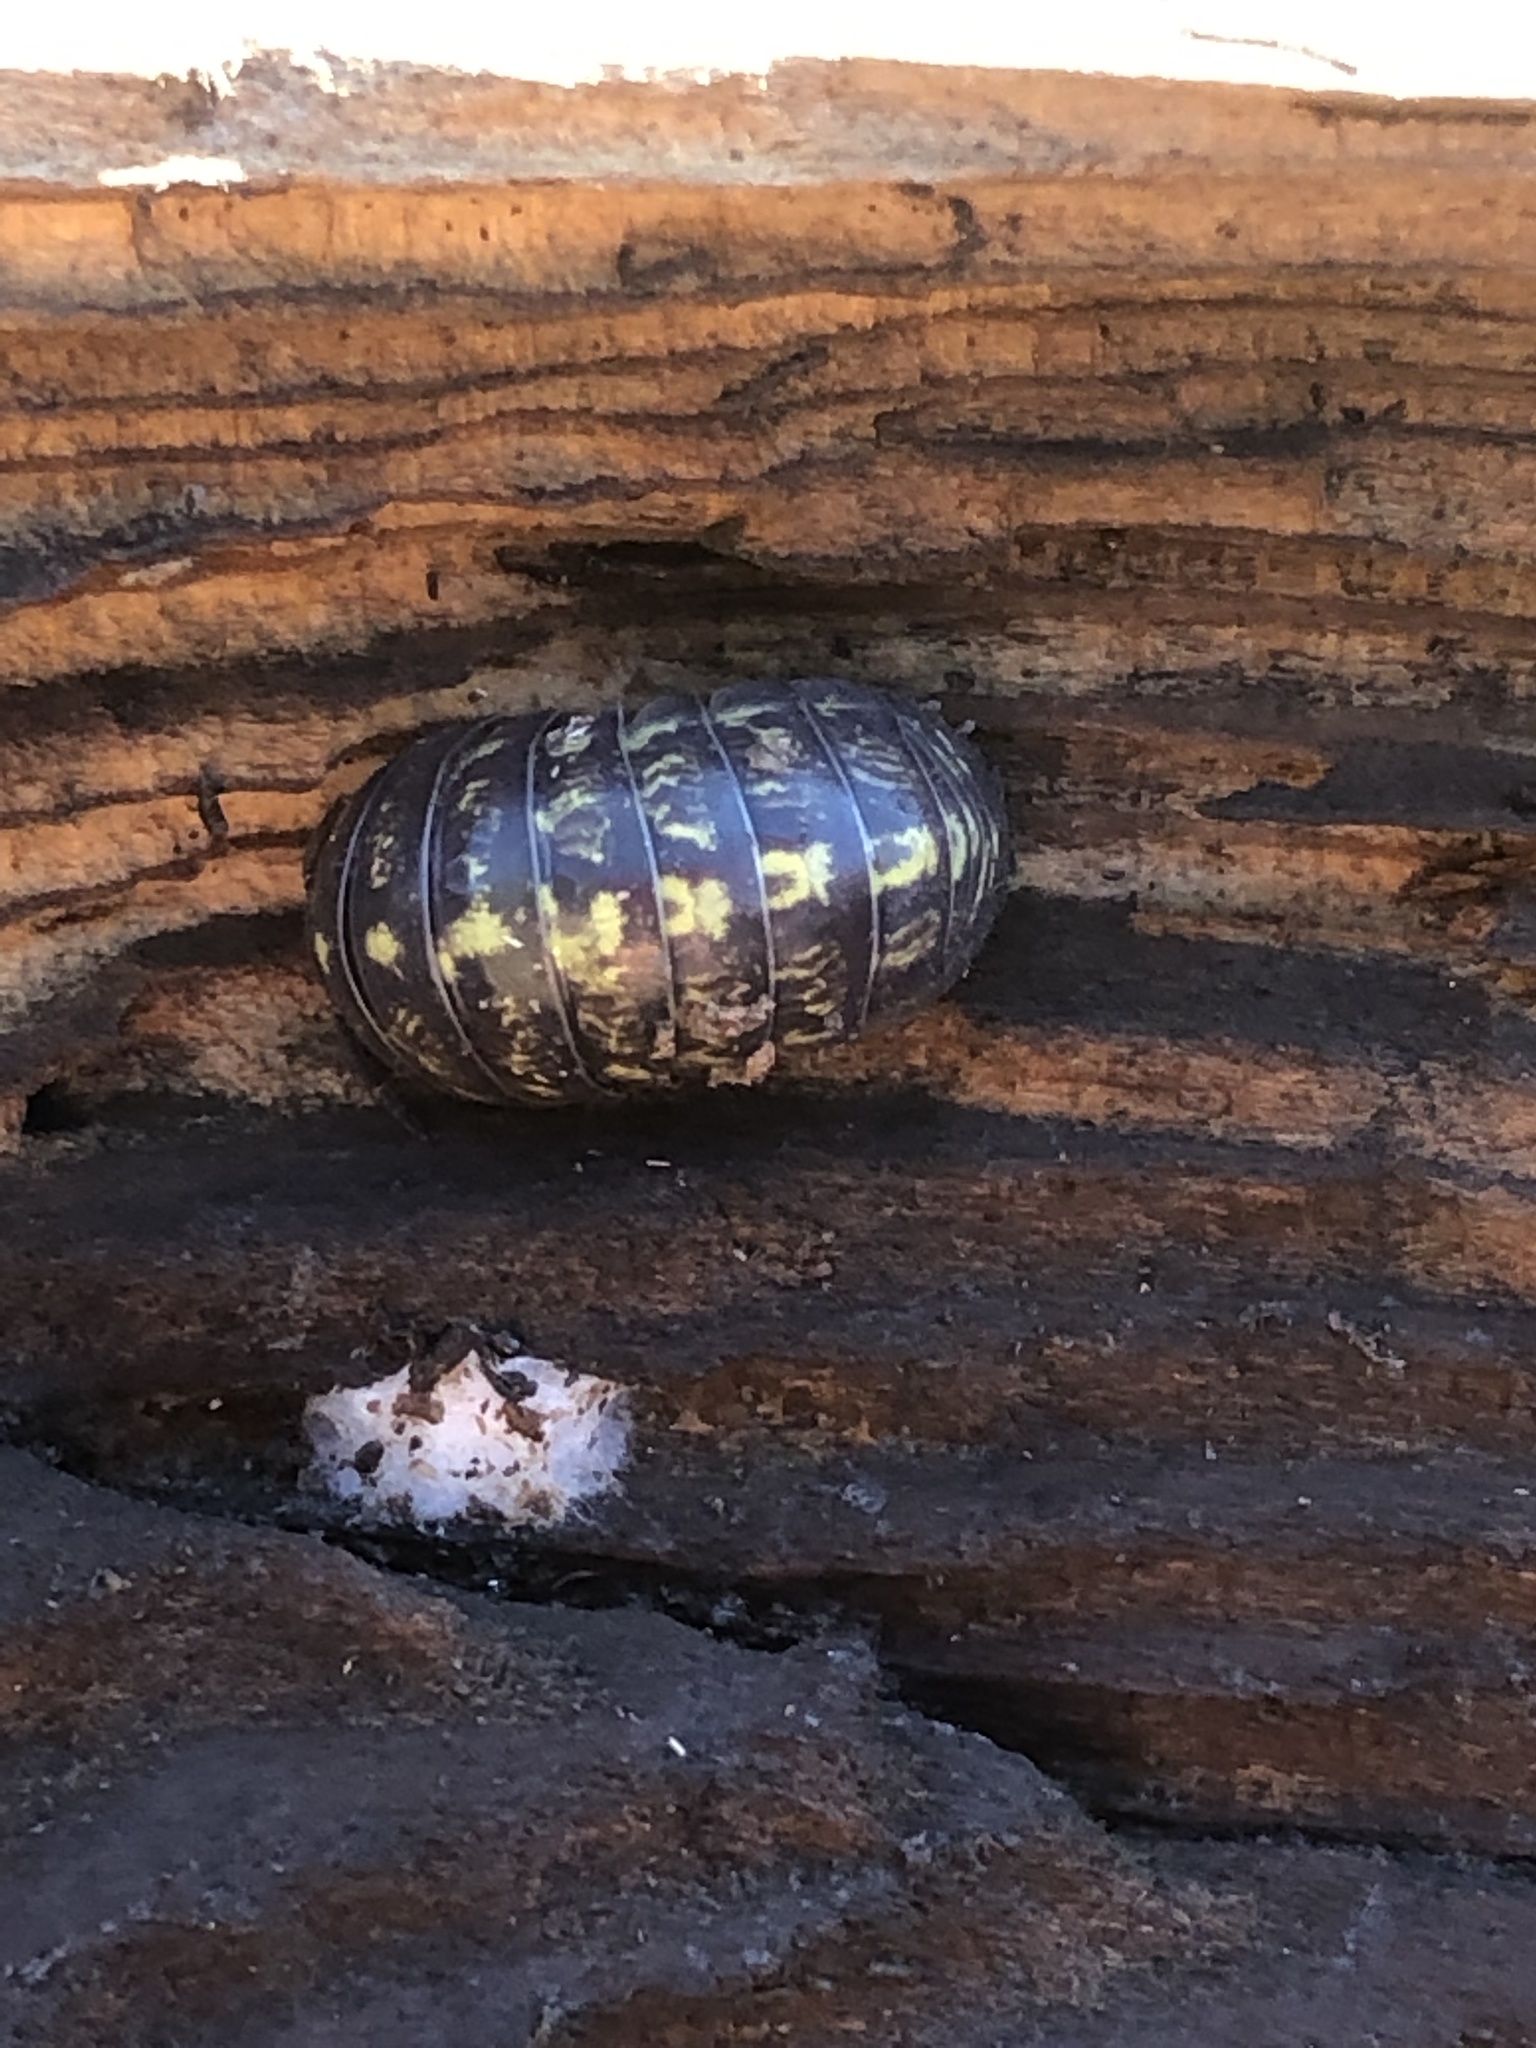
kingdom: Animalia
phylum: Arthropoda
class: Malacostraca
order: Isopoda
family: Armadillidiidae
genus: Armadillidium
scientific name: Armadillidium vulgare
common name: Common pill woodlouse
